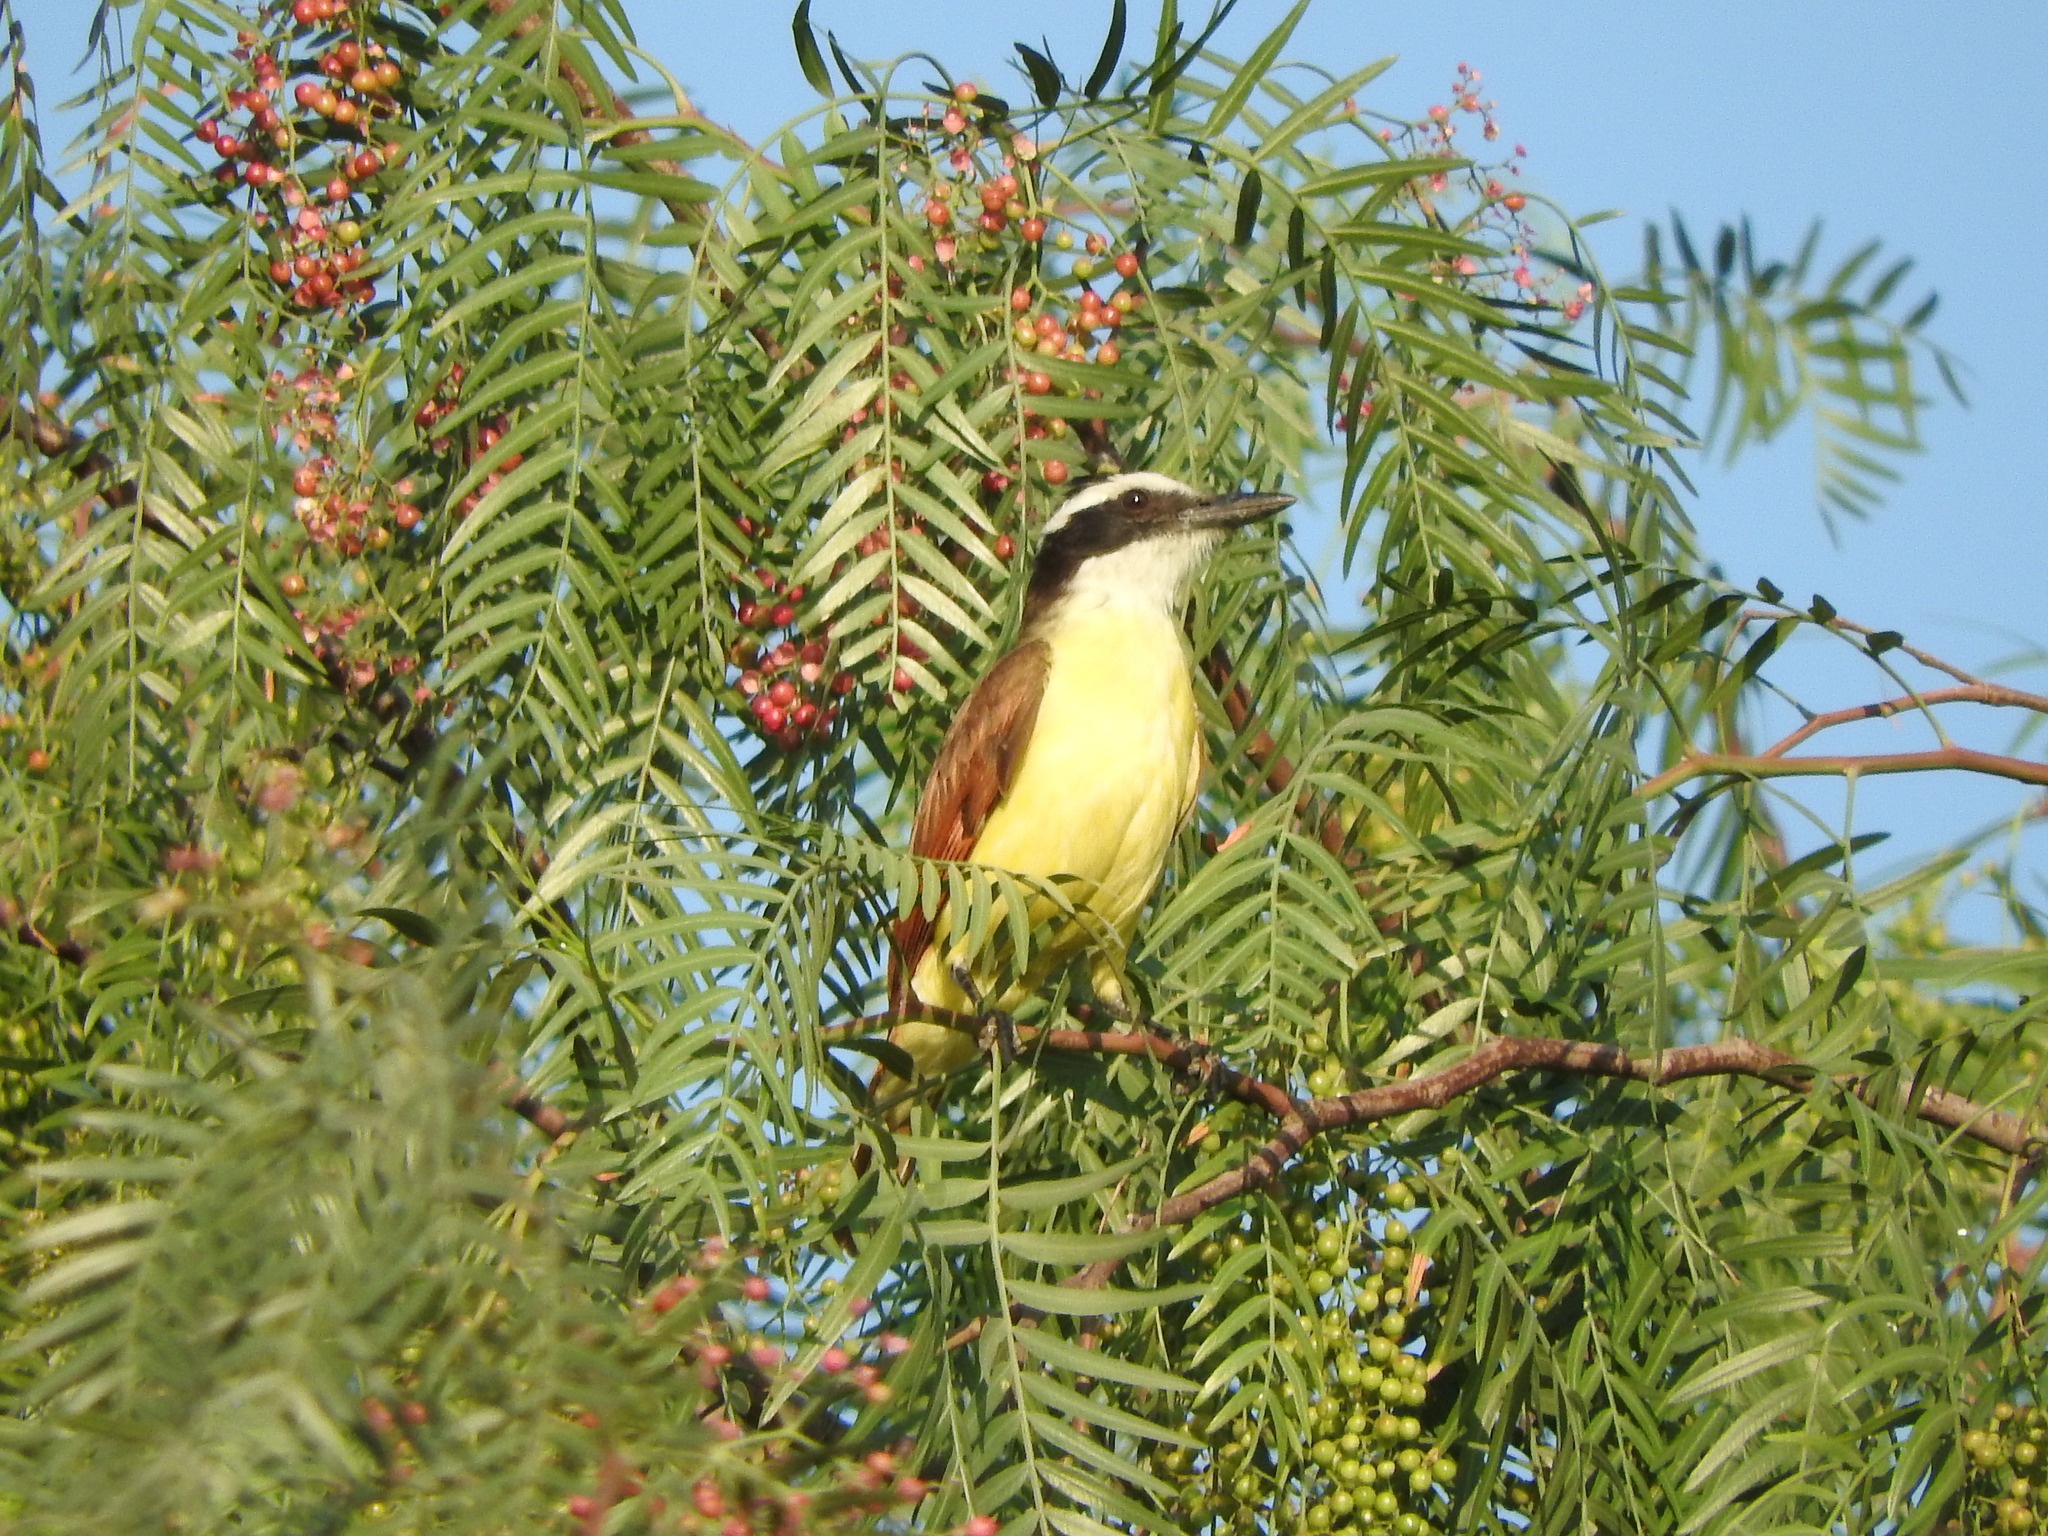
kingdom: Animalia
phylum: Chordata
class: Aves
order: Passeriformes
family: Tyrannidae
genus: Pitangus
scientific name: Pitangus sulphuratus
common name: Great kiskadee
